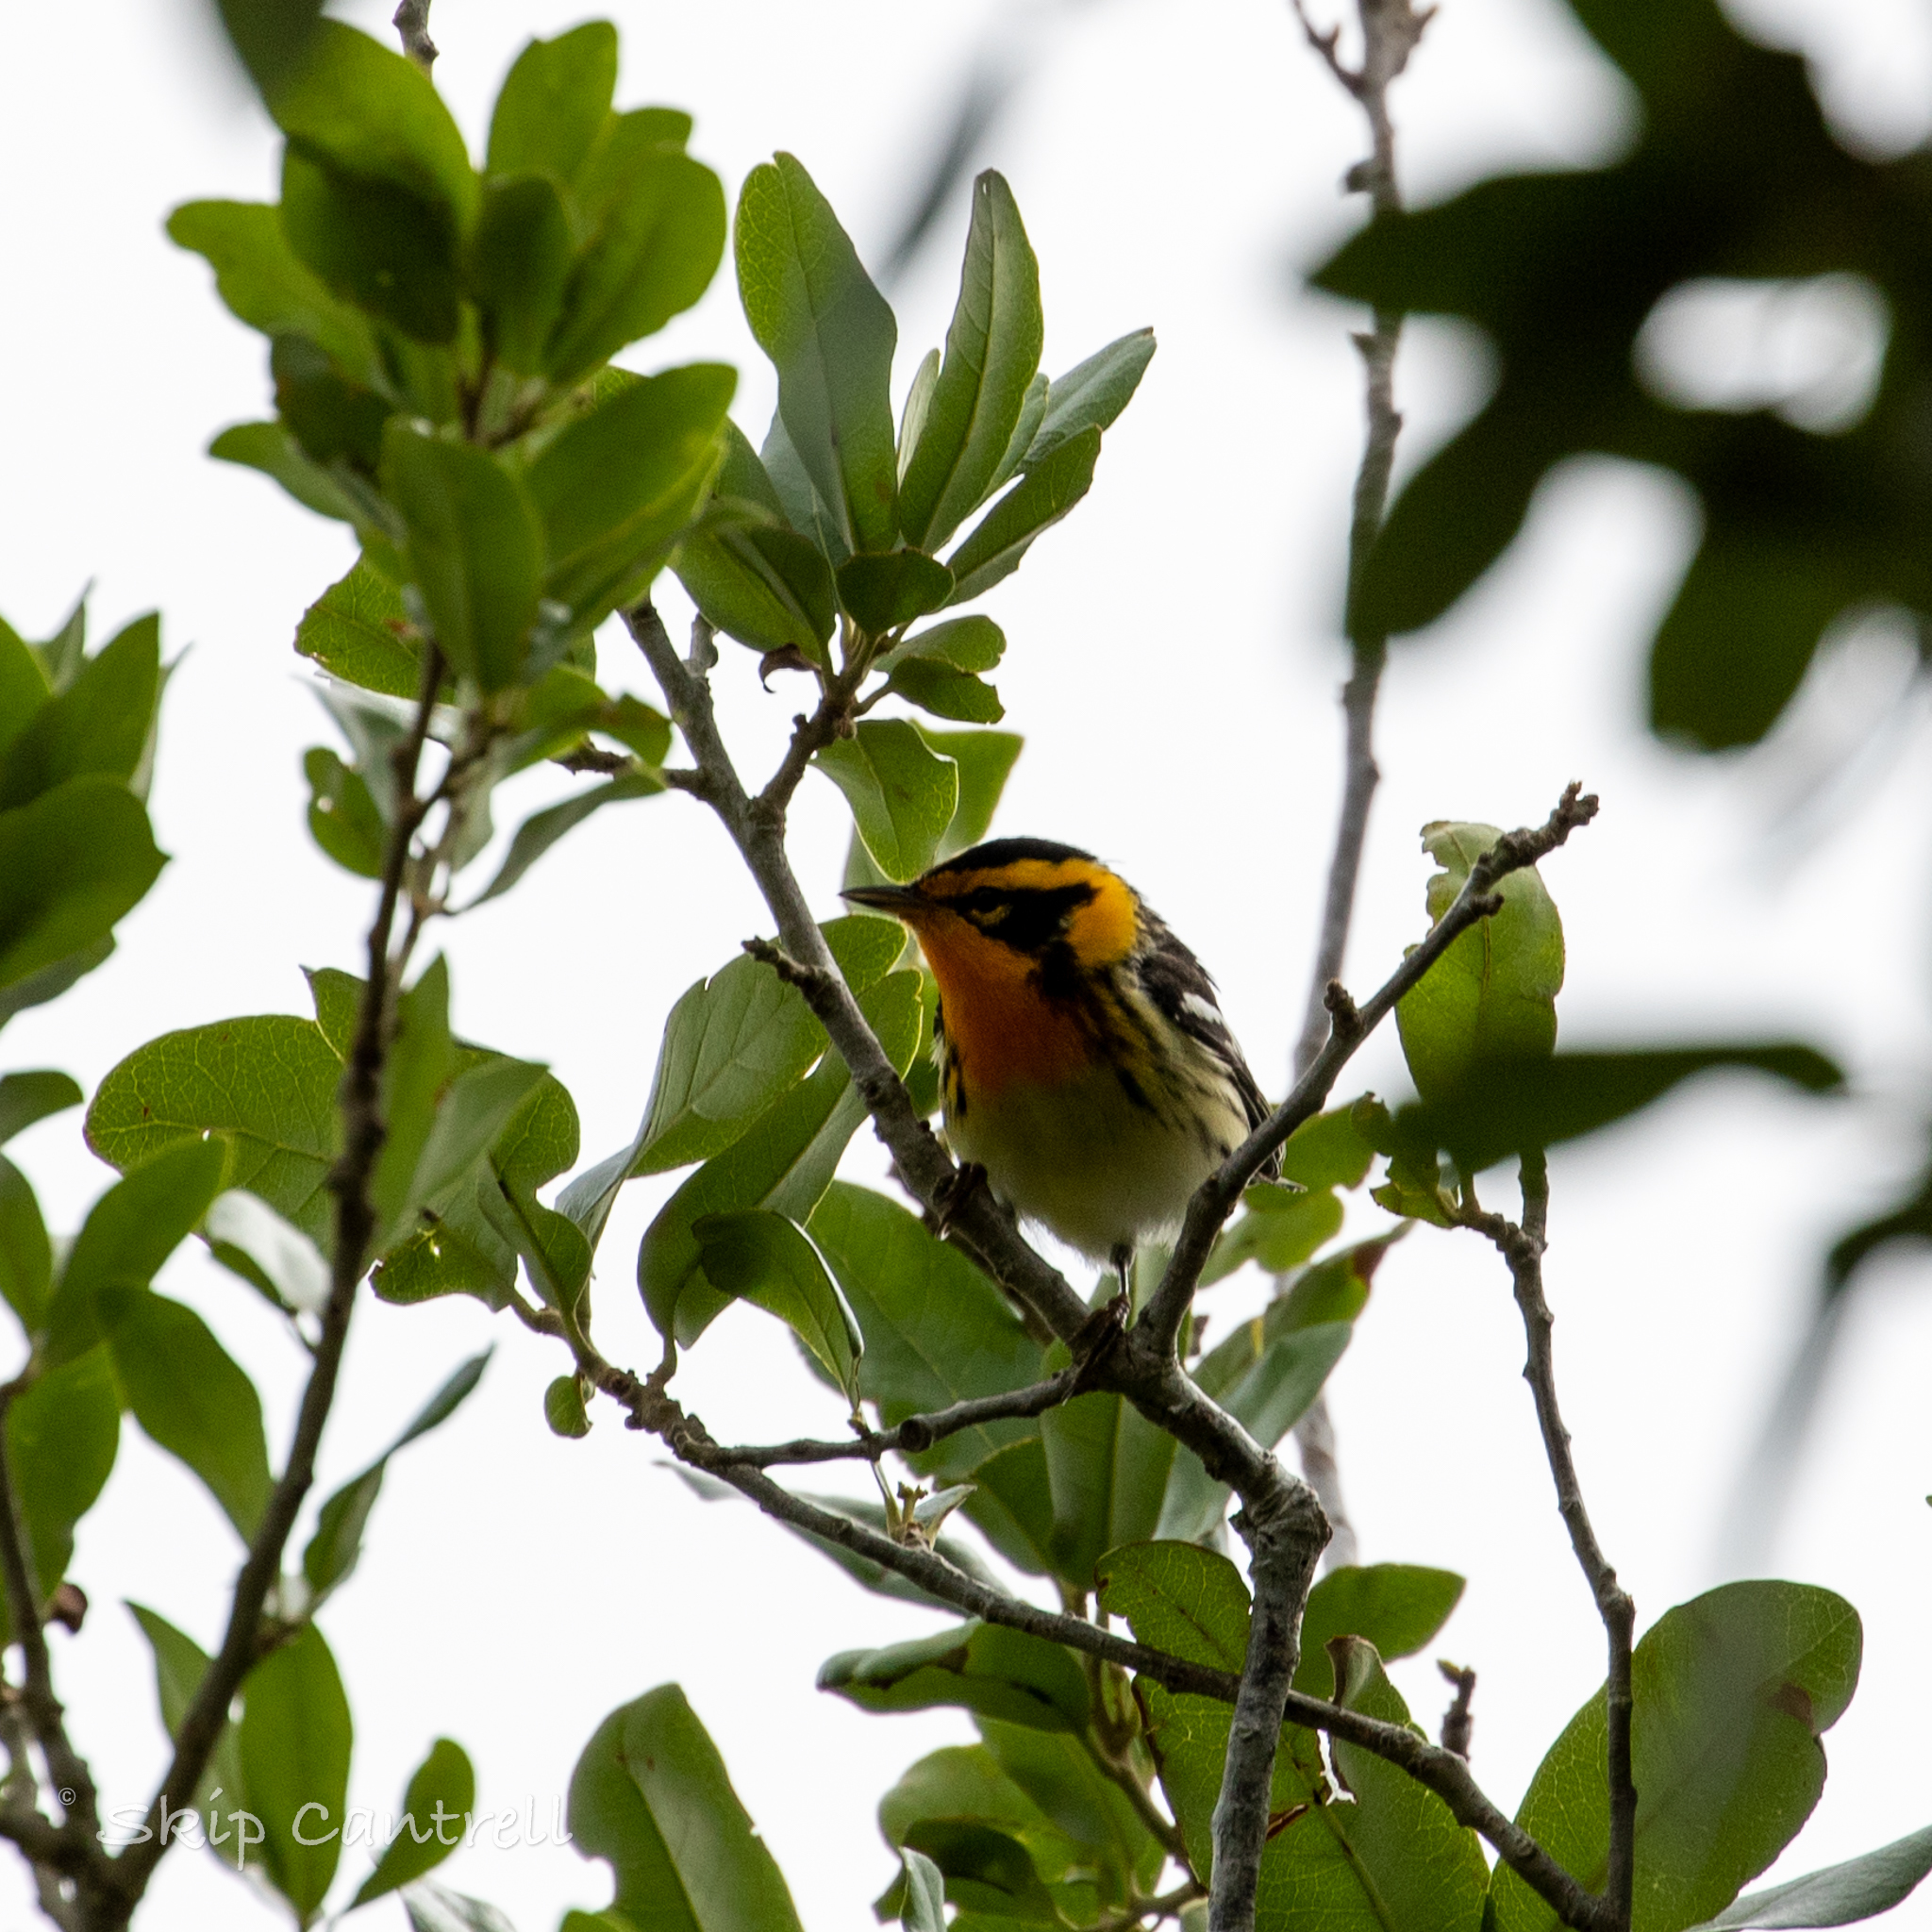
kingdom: Animalia
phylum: Chordata
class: Aves
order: Passeriformes
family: Parulidae
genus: Setophaga
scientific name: Setophaga fusca
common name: Blackburnian warbler
